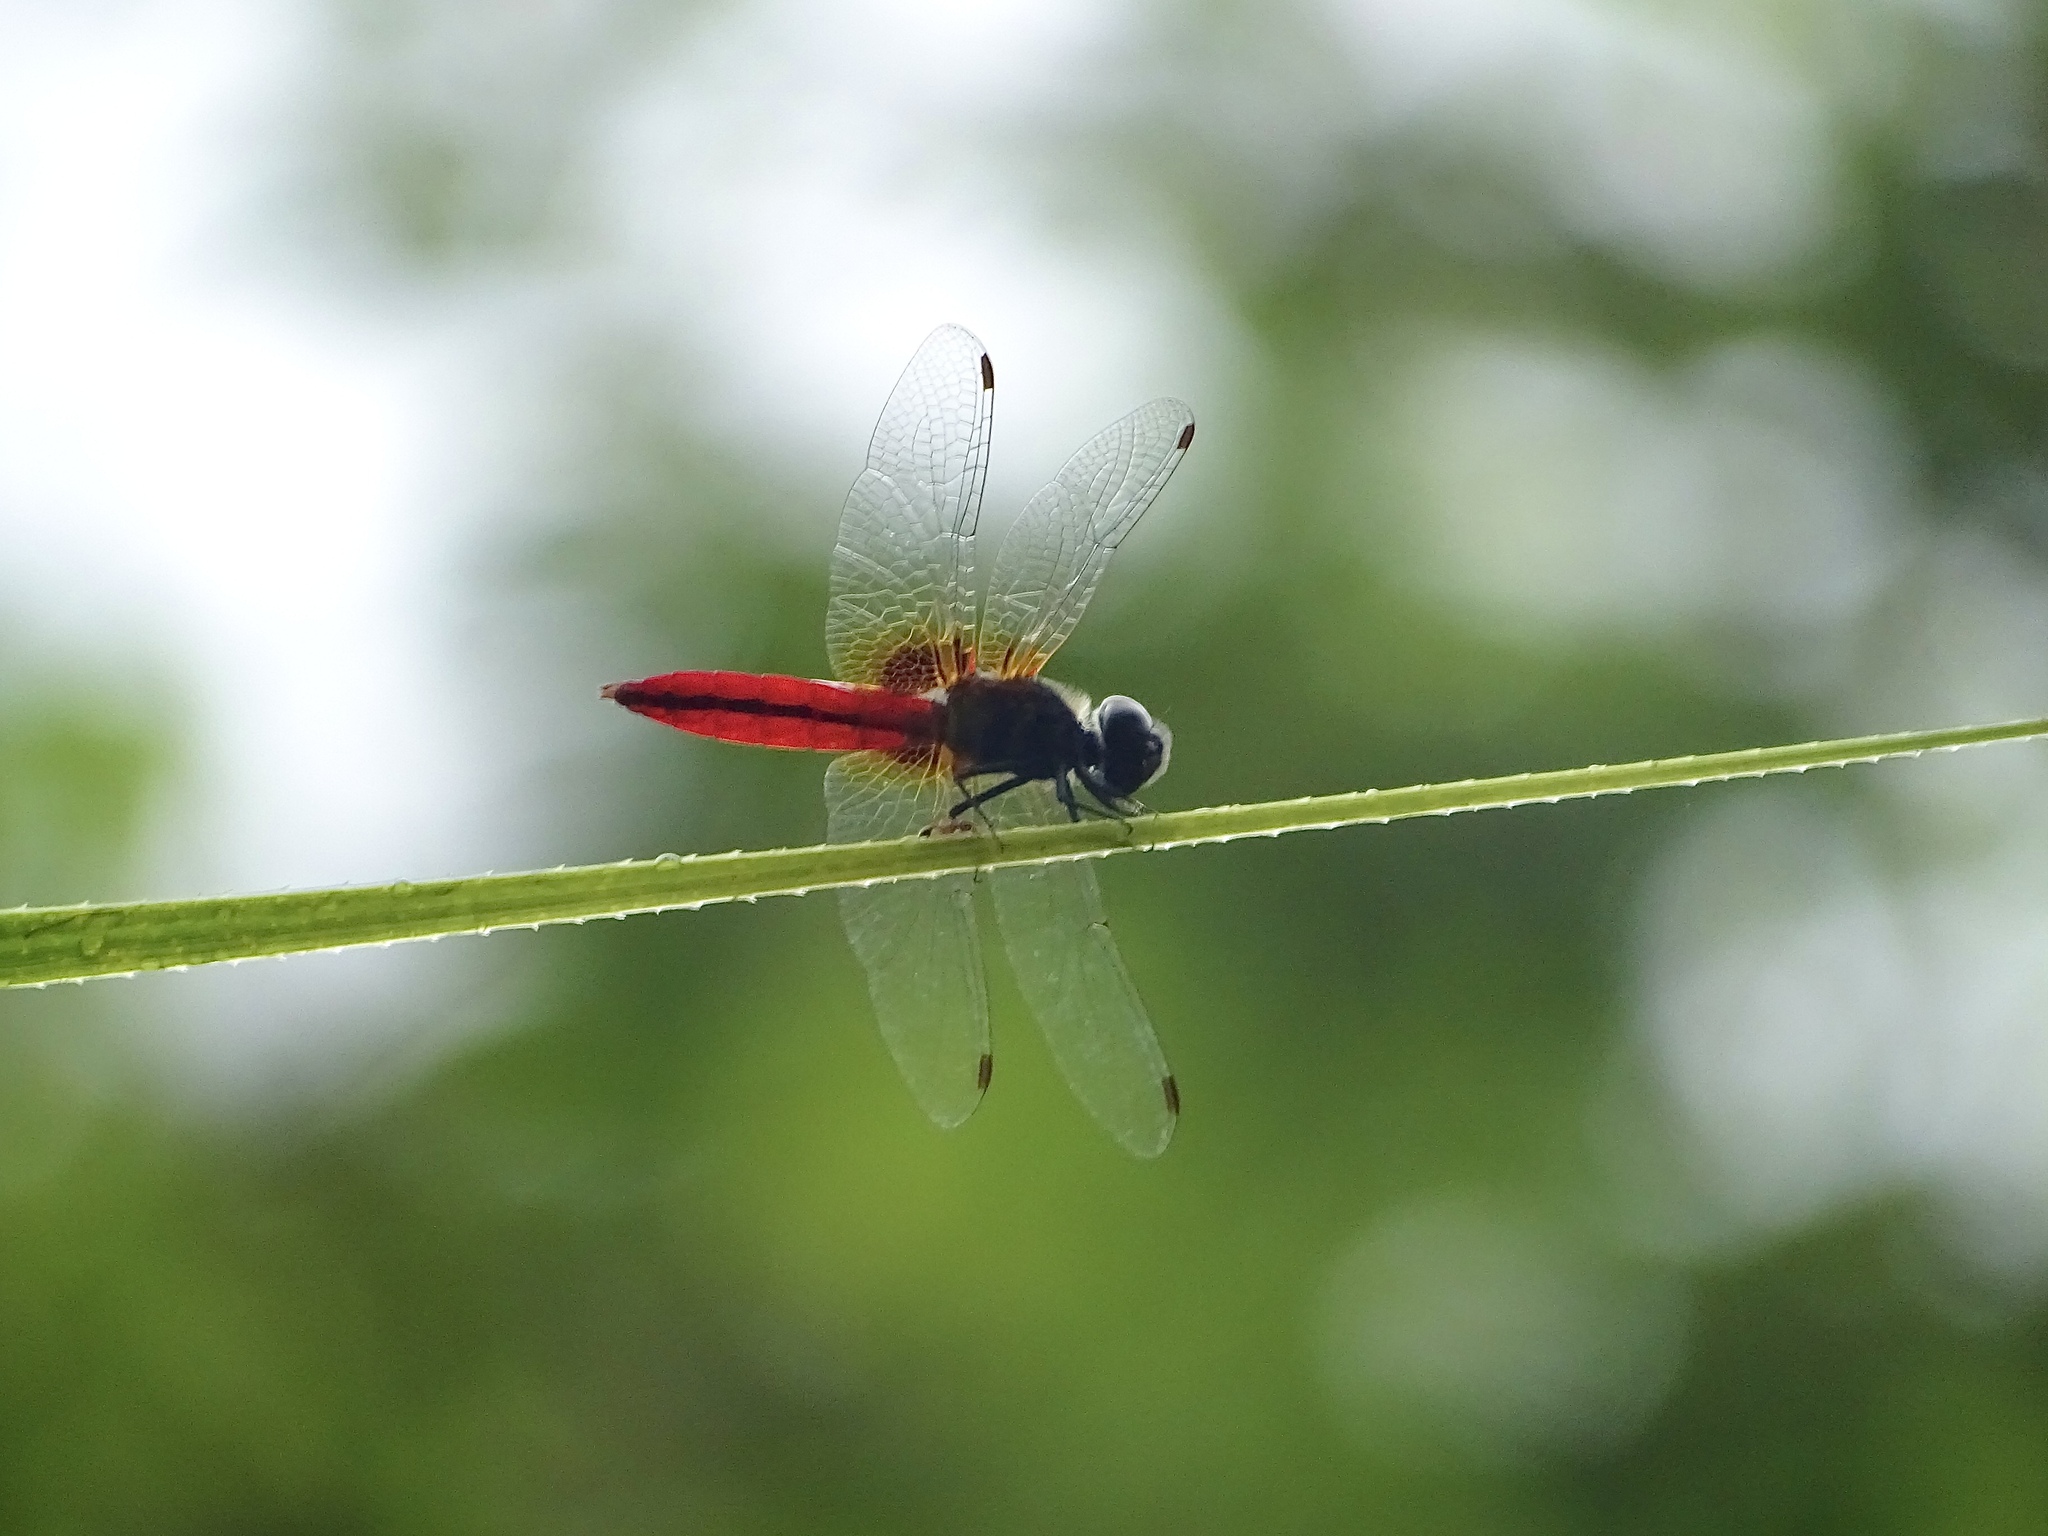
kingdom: Animalia
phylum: Arthropoda
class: Insecta
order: Odonata
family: Libellulidae
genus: Aethriamanta
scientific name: Aethriamanta brevipennis
